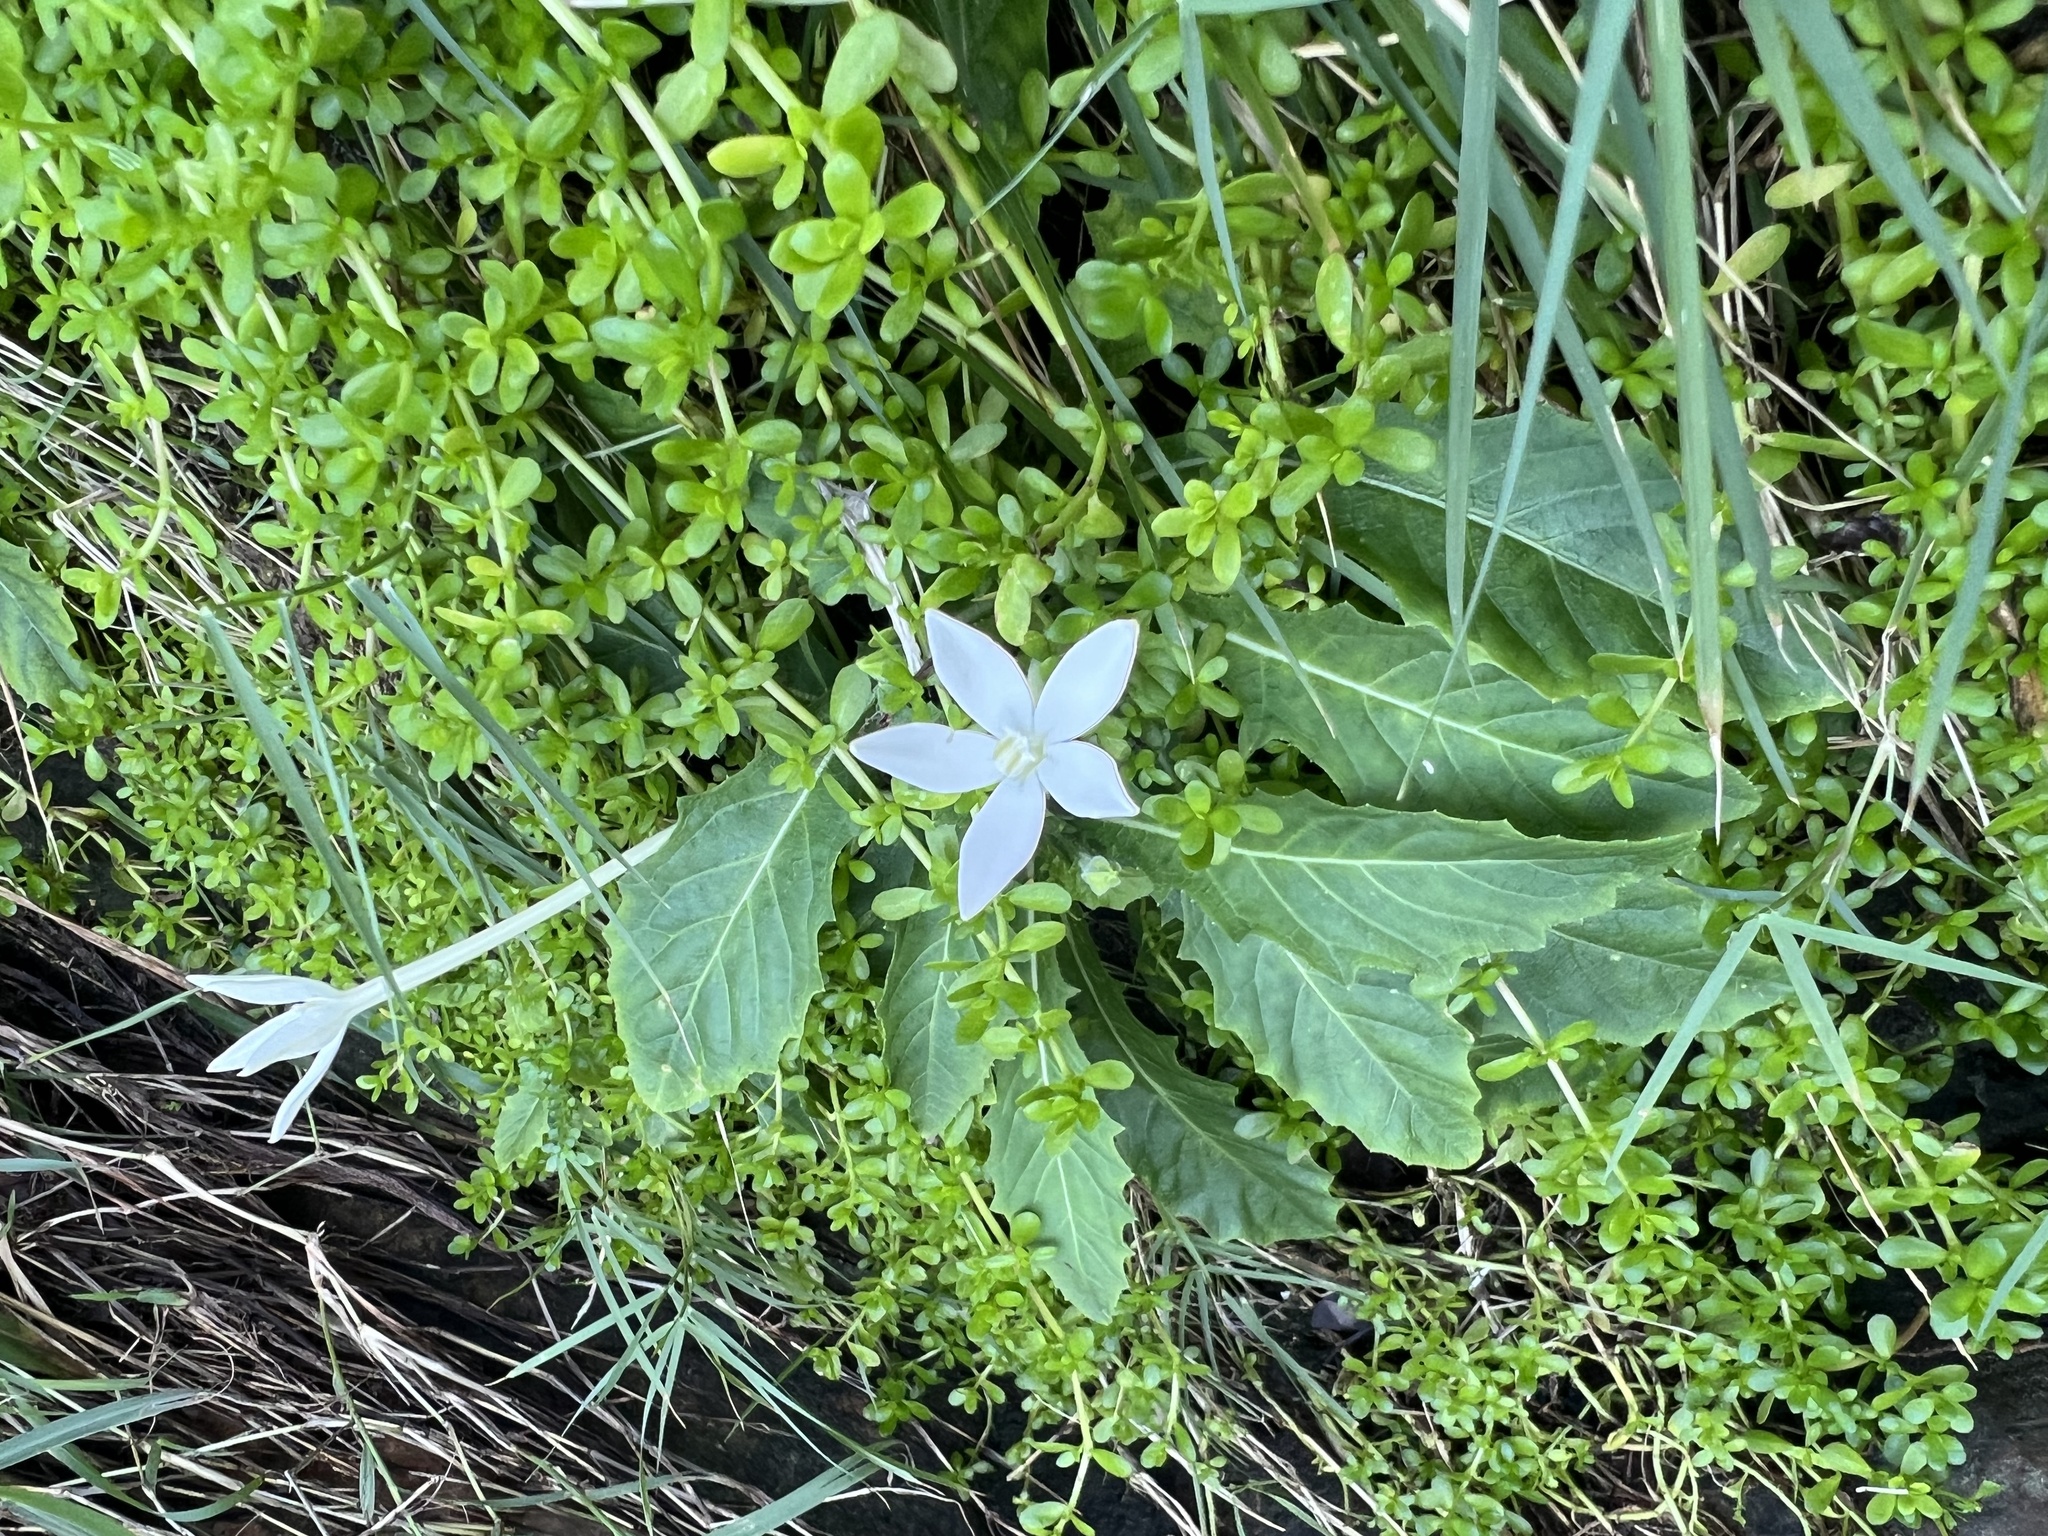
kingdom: Plantae
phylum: Tracheophyta
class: Magnoliopsida
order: Asterales
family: Campanulaceae
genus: Hippobroma
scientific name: Hippobroma longiflora
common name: Madamfate
